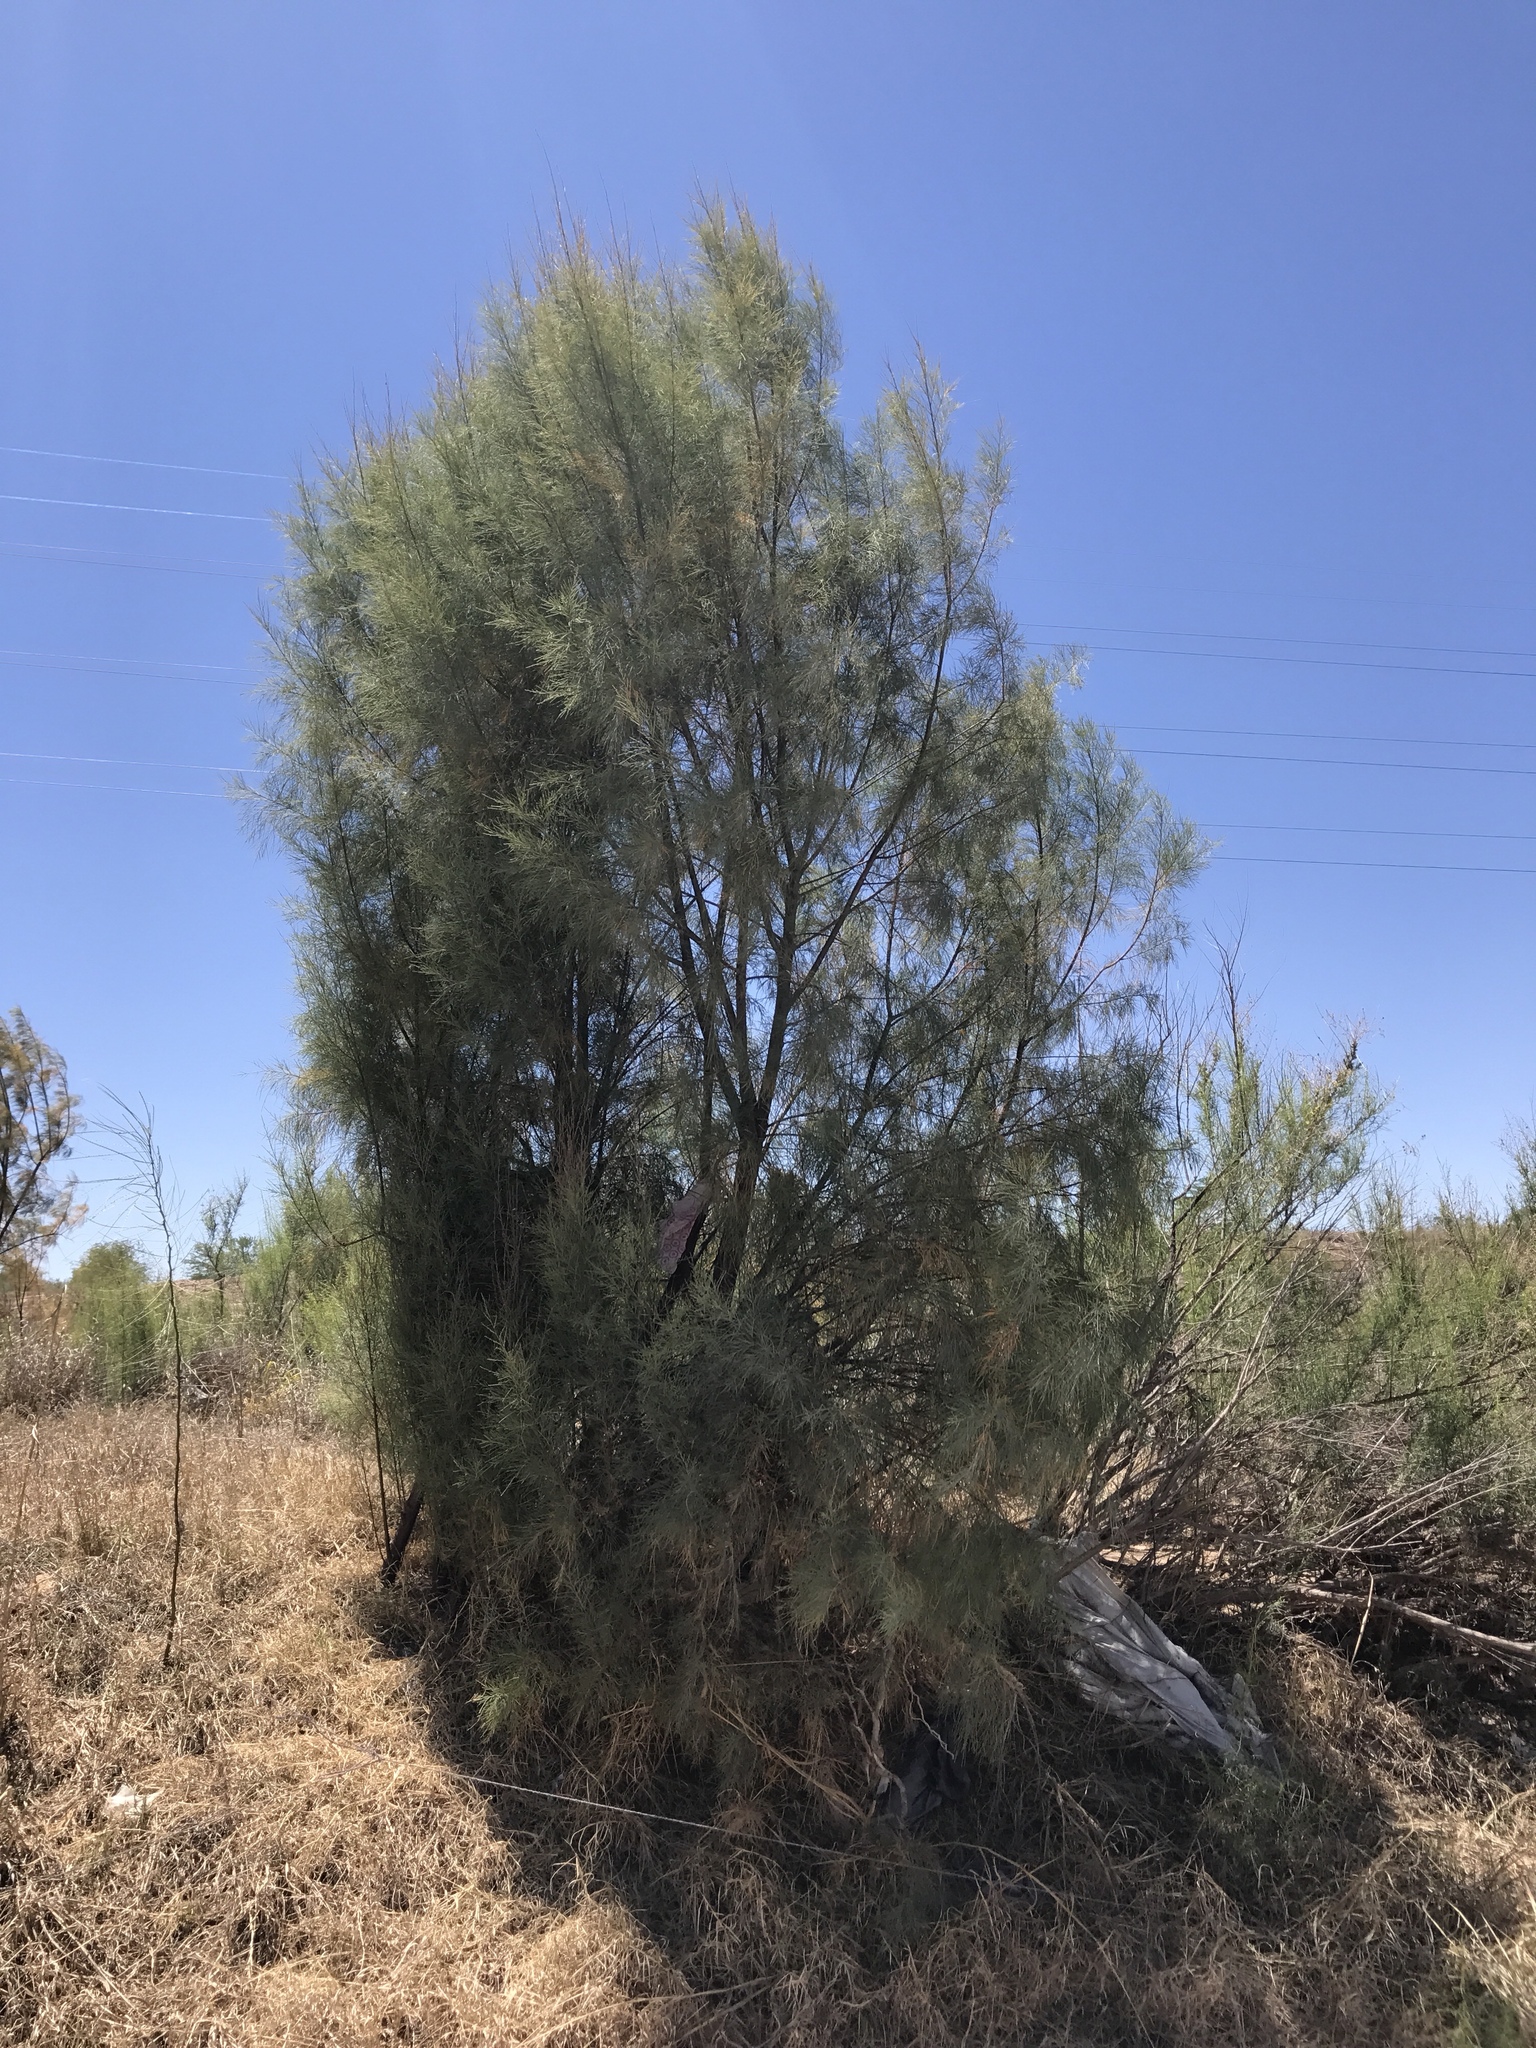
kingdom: Plantae
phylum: Tracheophyta
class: Magnoliopsida
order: Caryophyllales
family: Tamaricaceae
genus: Tamarix
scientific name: Tamarix aphylla
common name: Athel tamarisk
